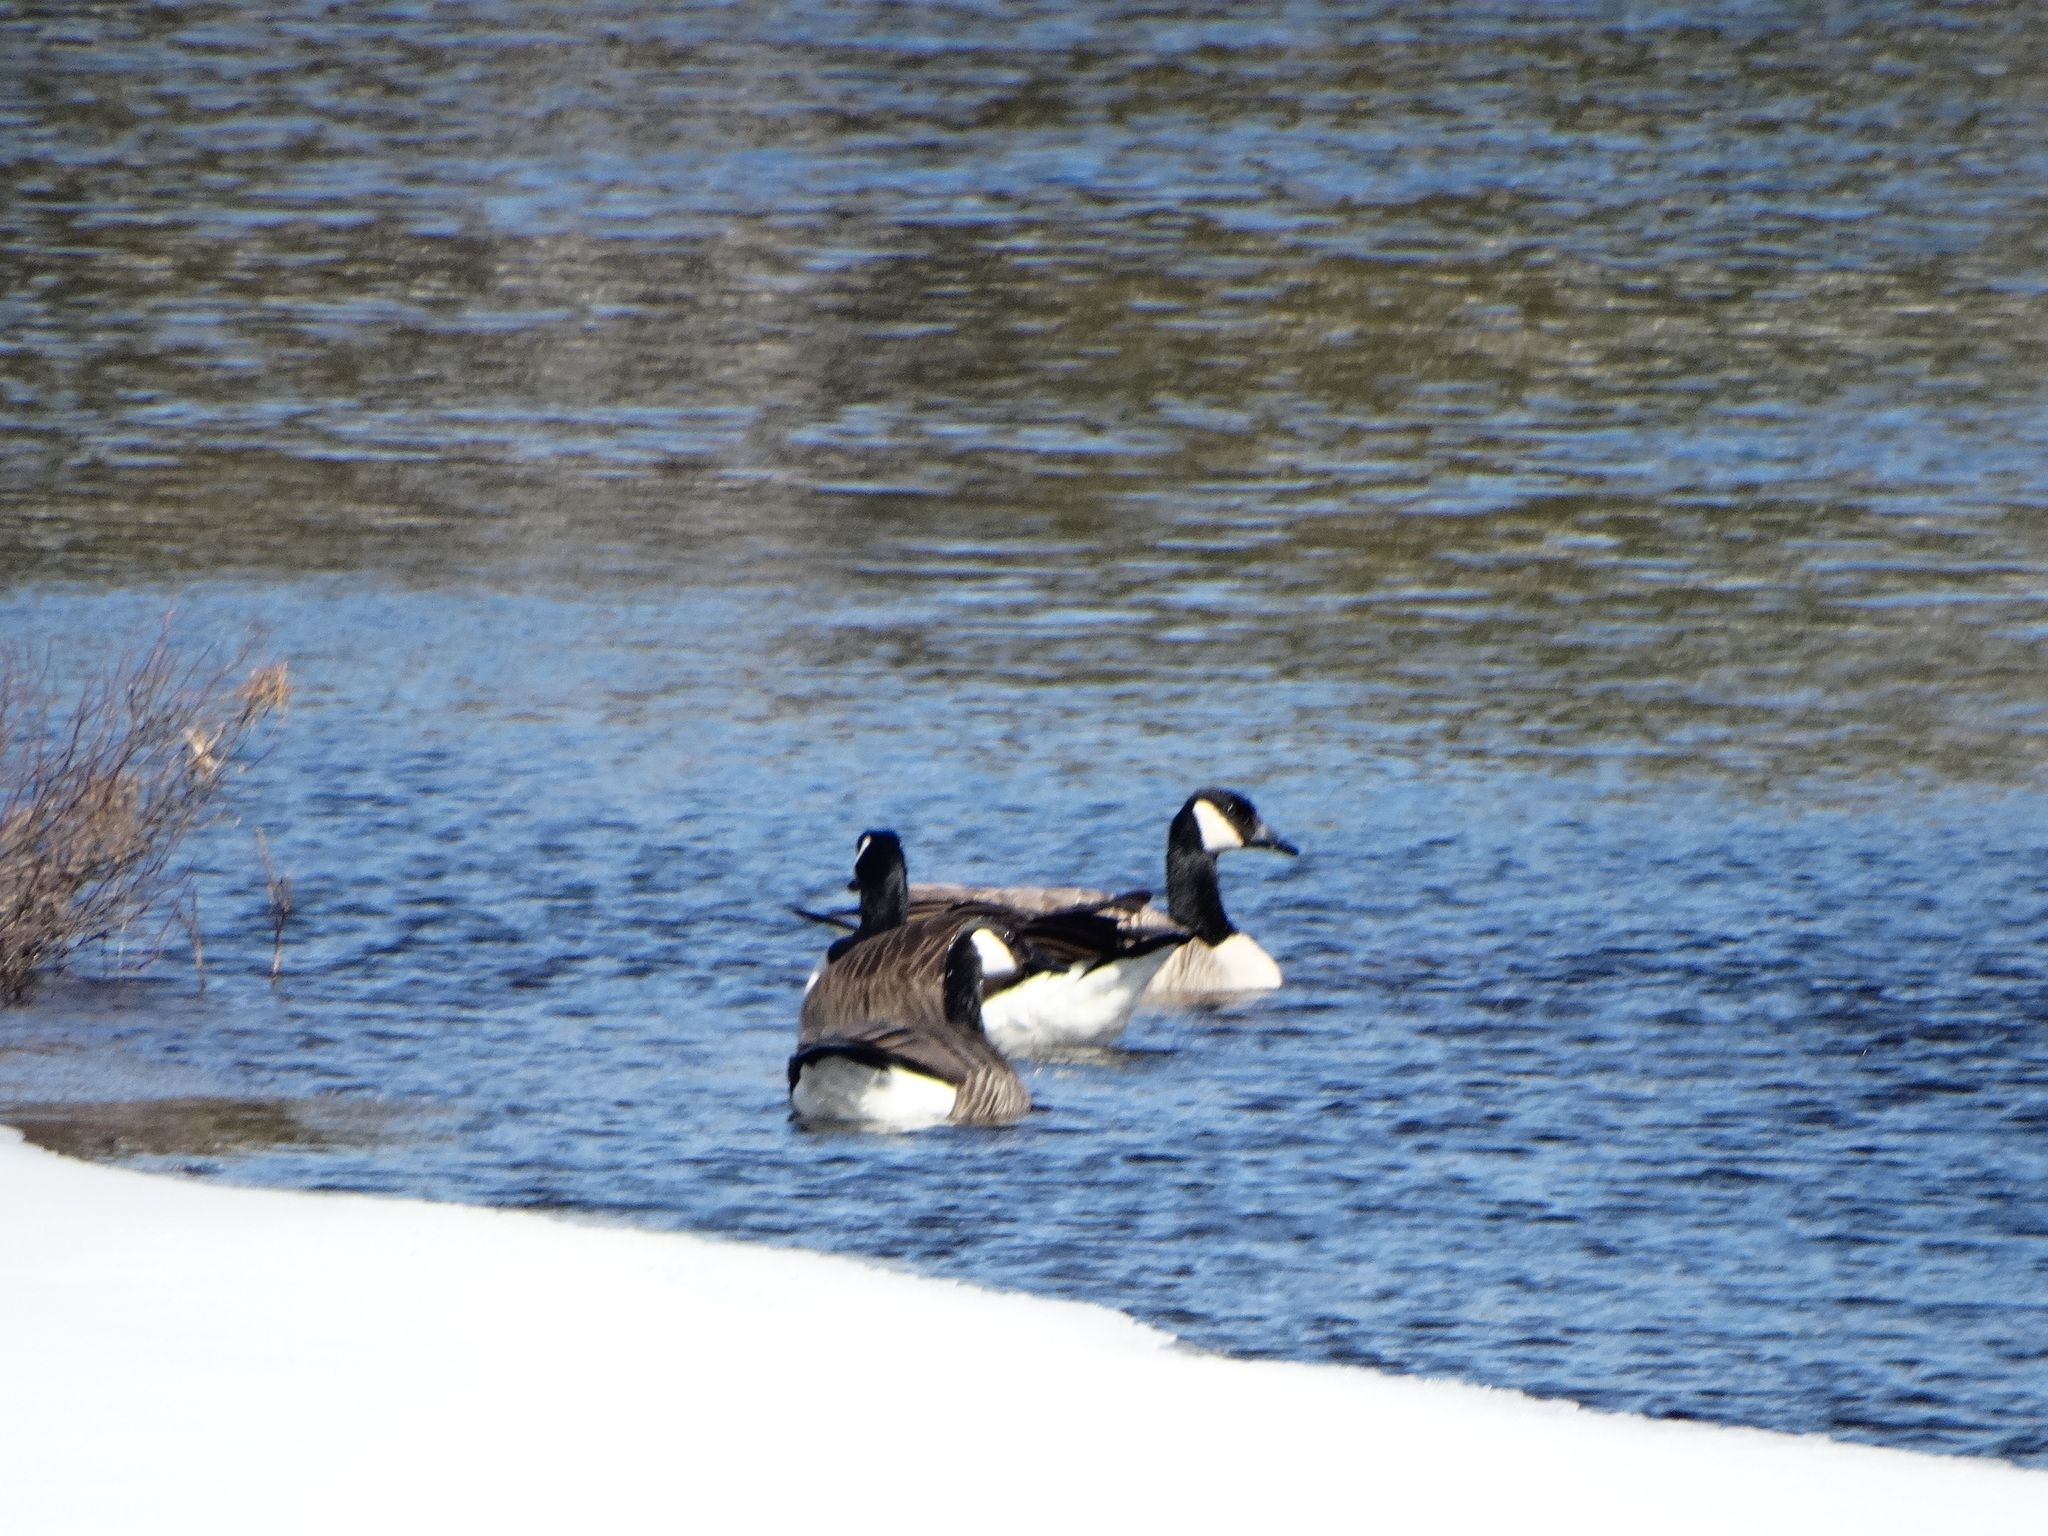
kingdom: Animalia
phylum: Chordata
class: Aves
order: Anseriformes
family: Anatidae
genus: Branta
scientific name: Branta canadensis
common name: Canada goose
